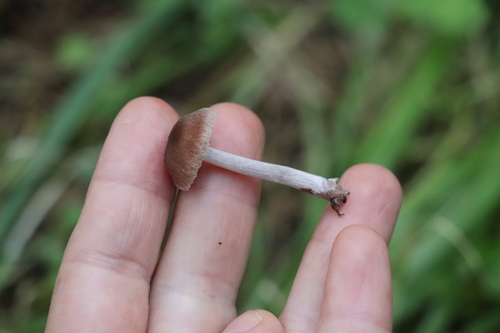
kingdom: Fungi
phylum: Basidiomycota
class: Agaricomycetes
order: Agaricales
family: Cortinariaceae
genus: Cortinarius
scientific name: Cortinarius
